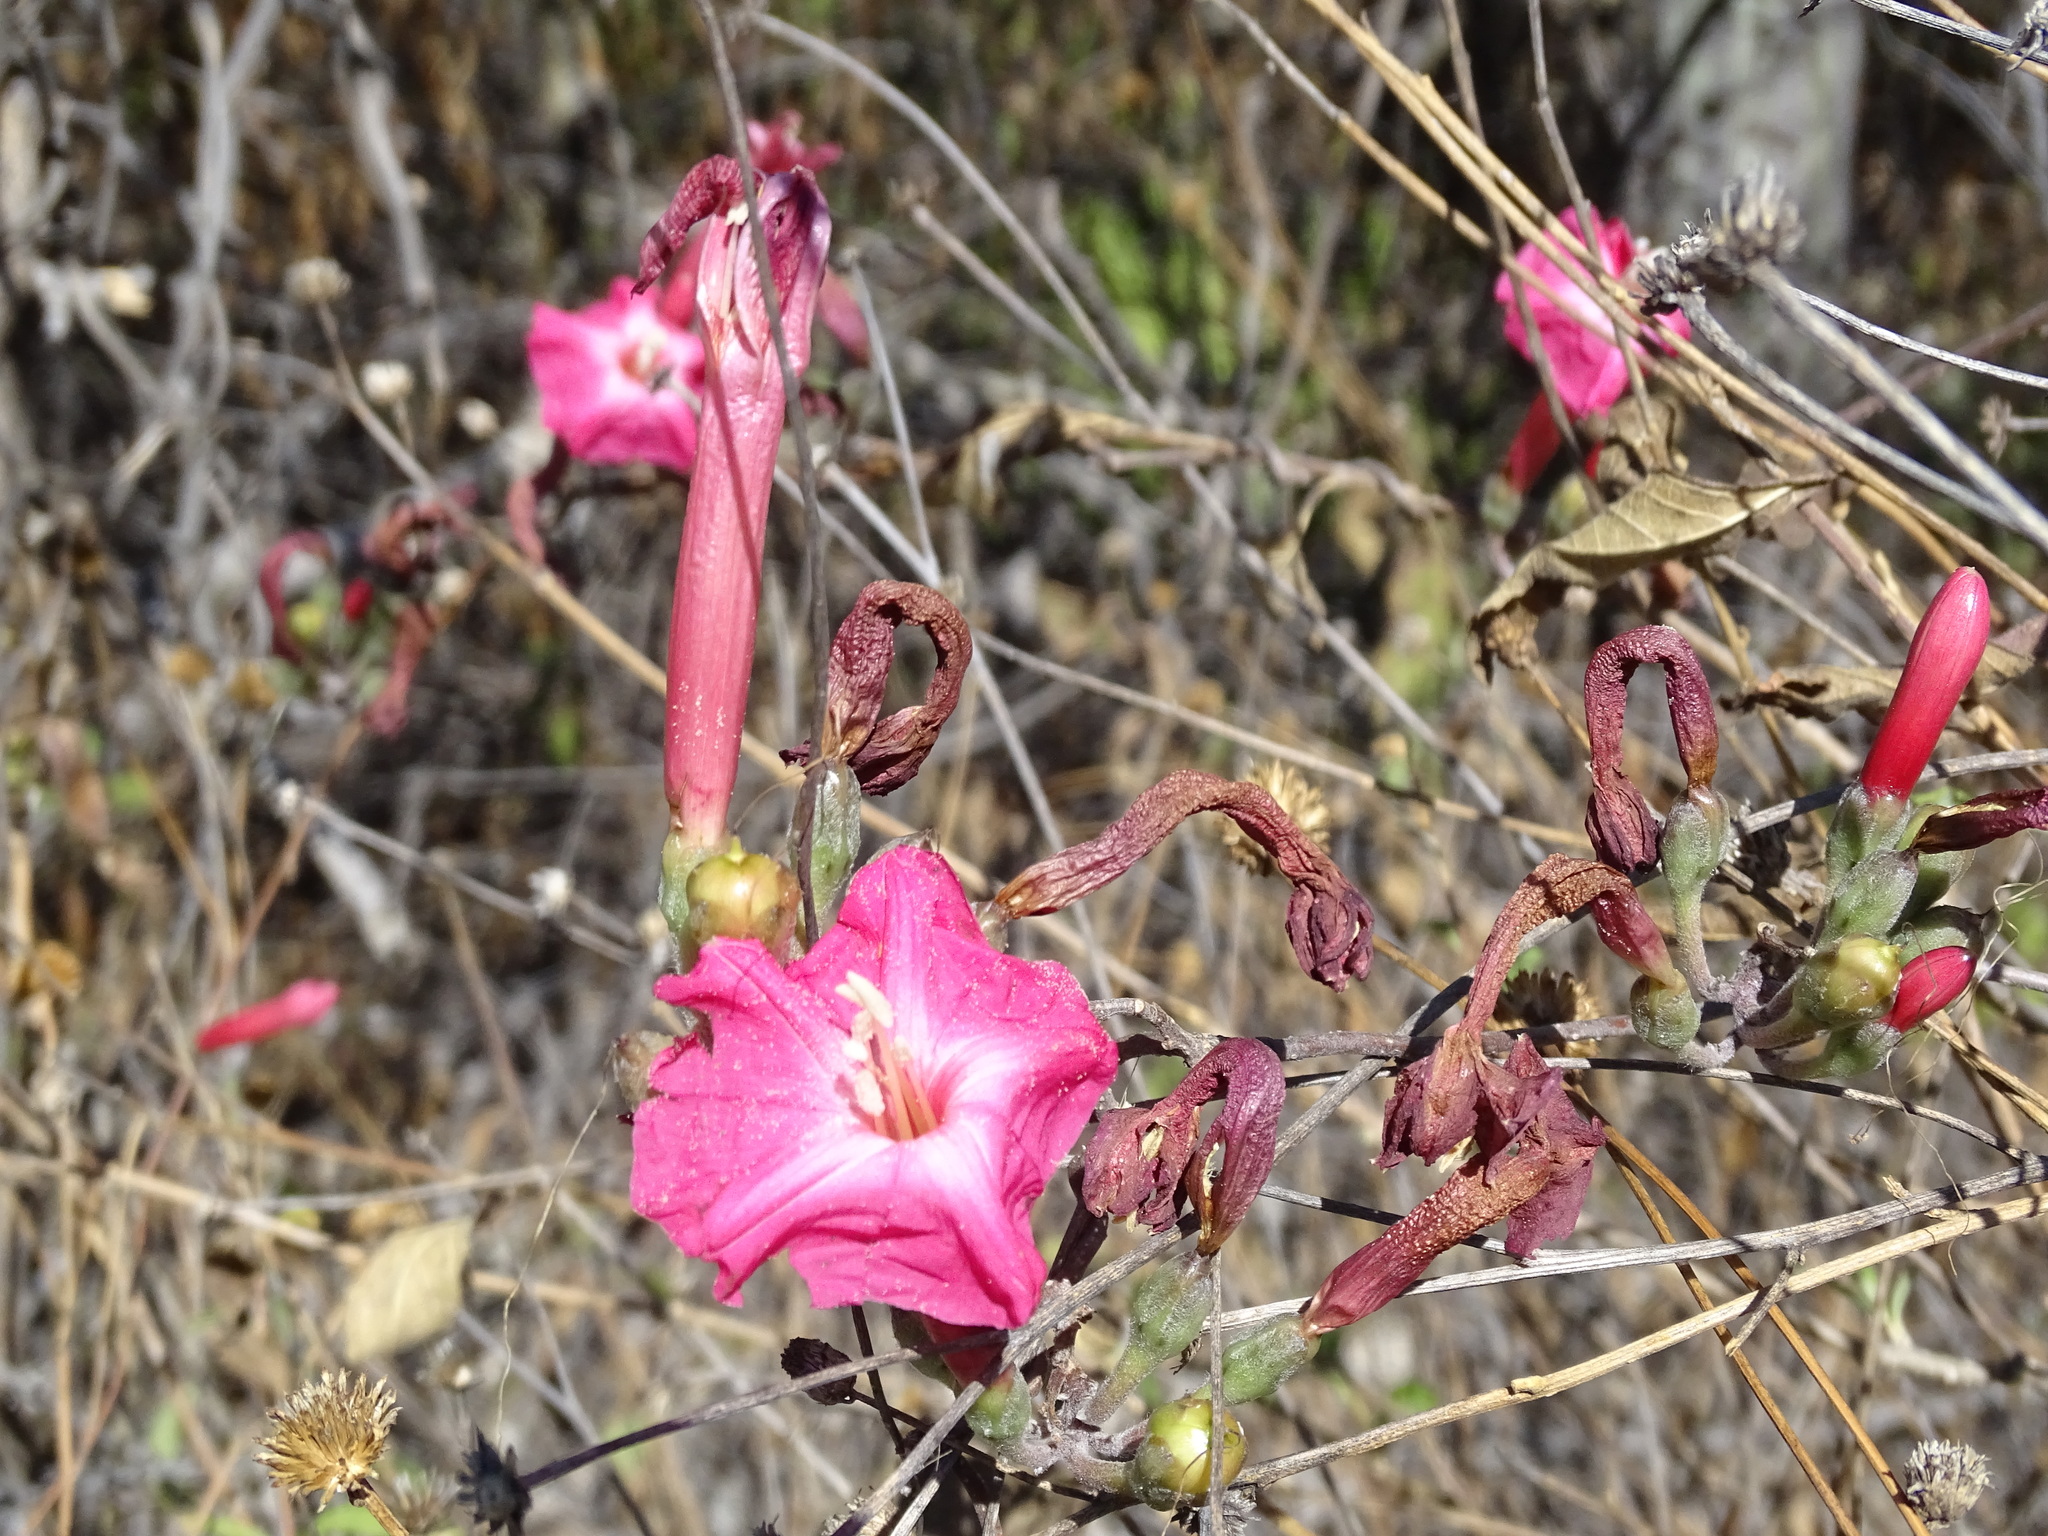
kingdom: Plantae
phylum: Tracheophyta
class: Magnoliopsida
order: Solanales
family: Convolvulaceae
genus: Ipomoea
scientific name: Ipomoea conzattii
